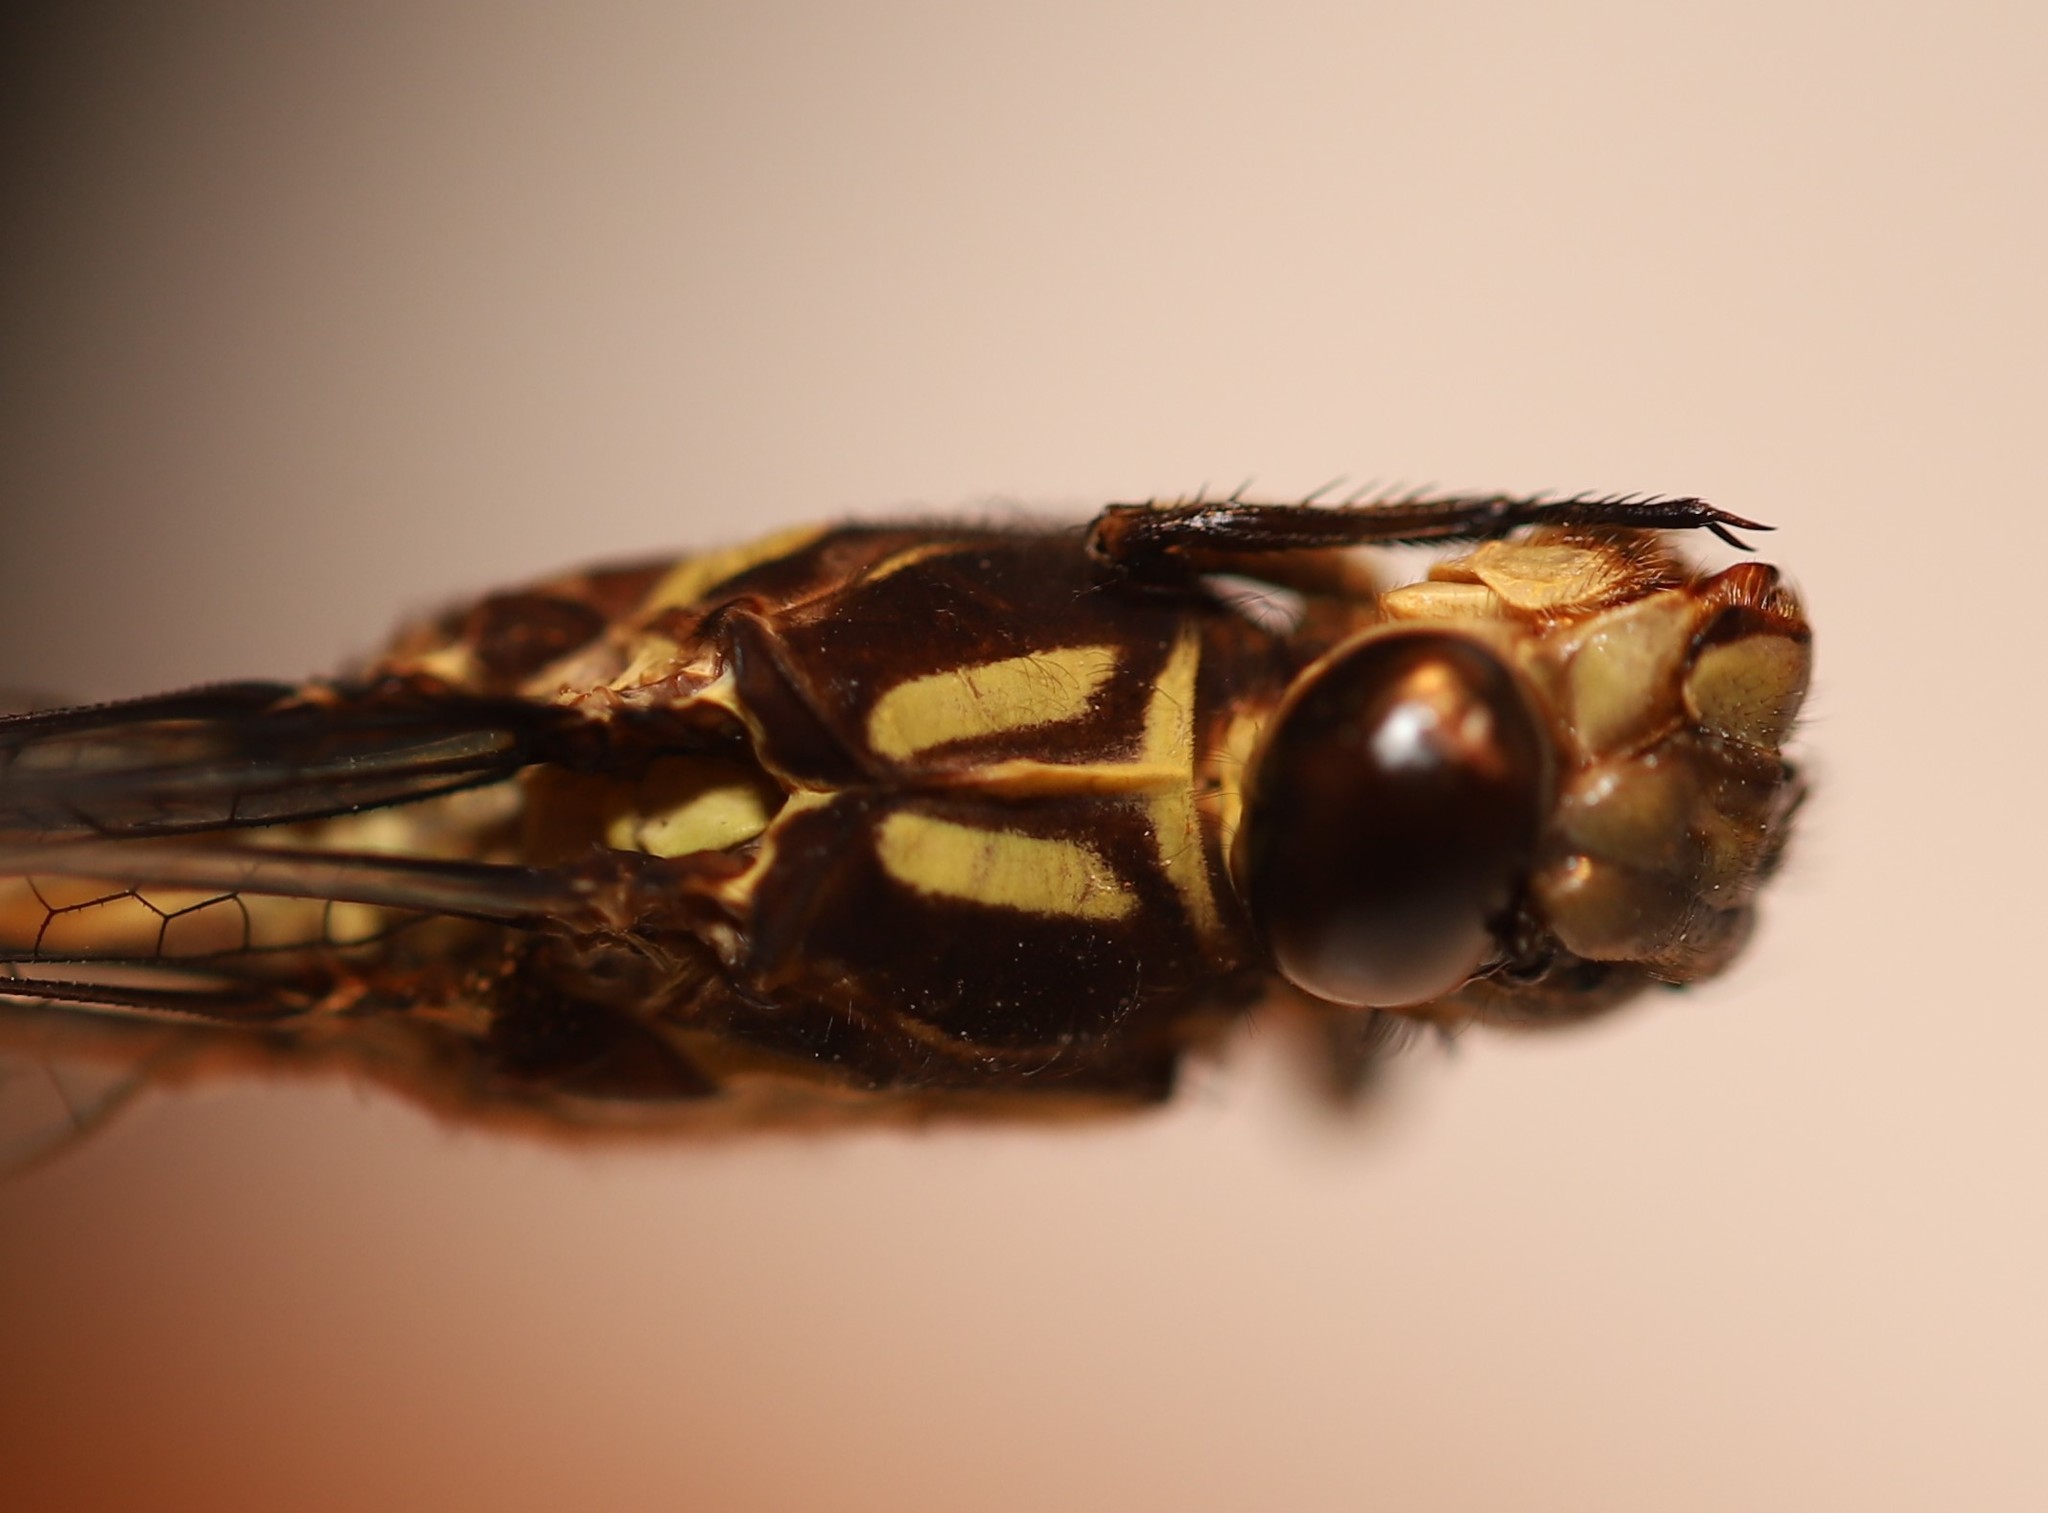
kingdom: Animalia
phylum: Arthropoda
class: Insecta
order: Odonata
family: Gomphidae
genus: Stylurus
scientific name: Stylurus amnicola
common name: Riverine clubtail
